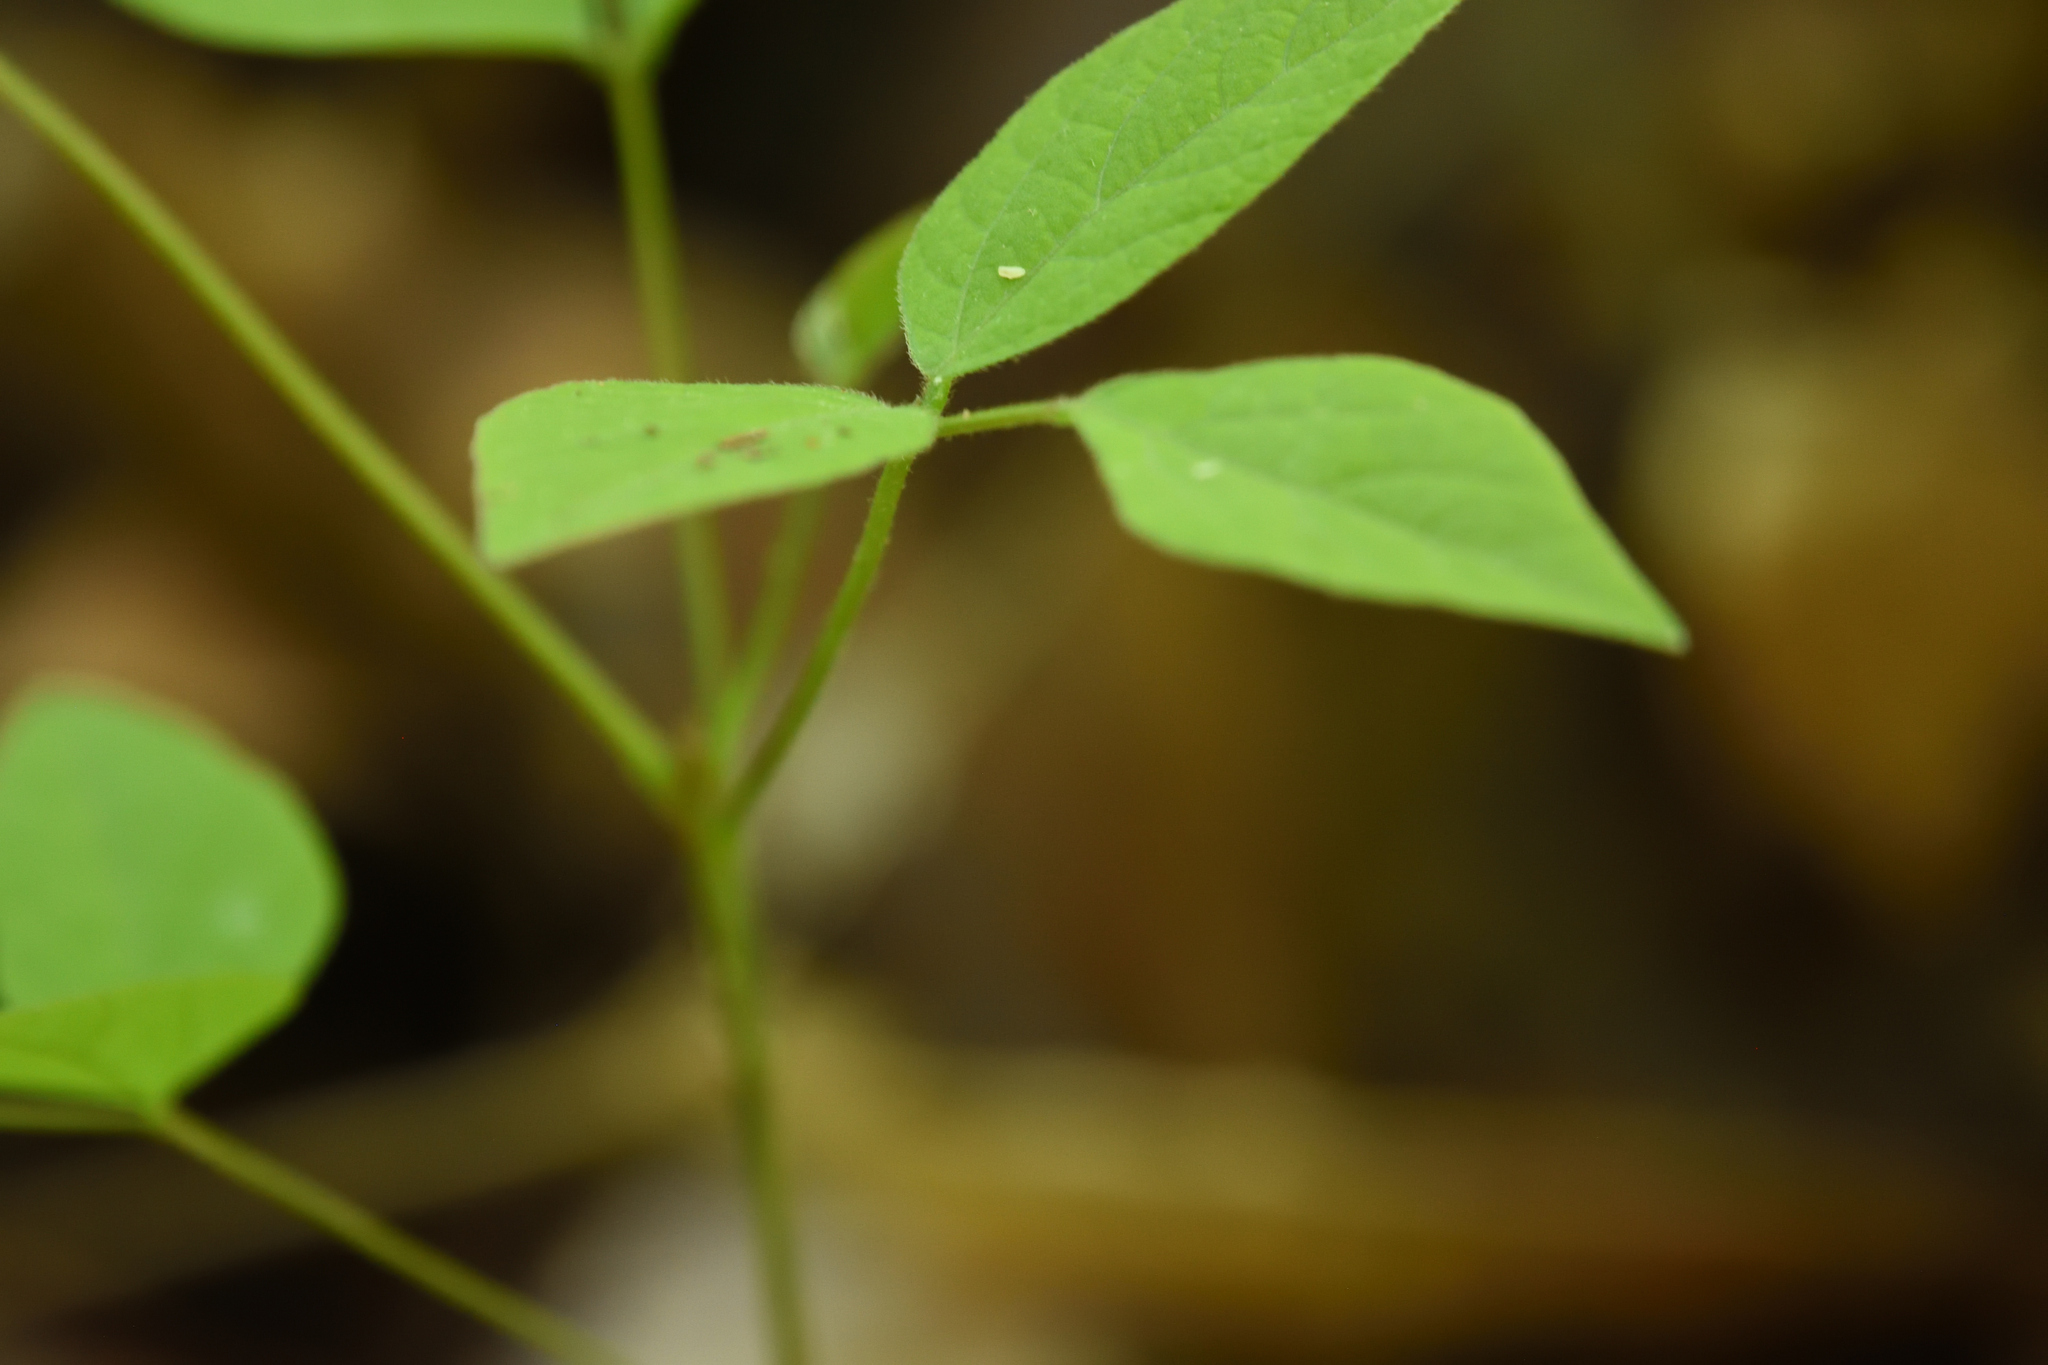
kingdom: Plantae
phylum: Tracheophyta
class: Magnoliopsida
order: Fabales
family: Fabaceae
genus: Hylodesmum
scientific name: Hylodesmum nudiflorum
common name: Bare-stemmed tick-trefoil
